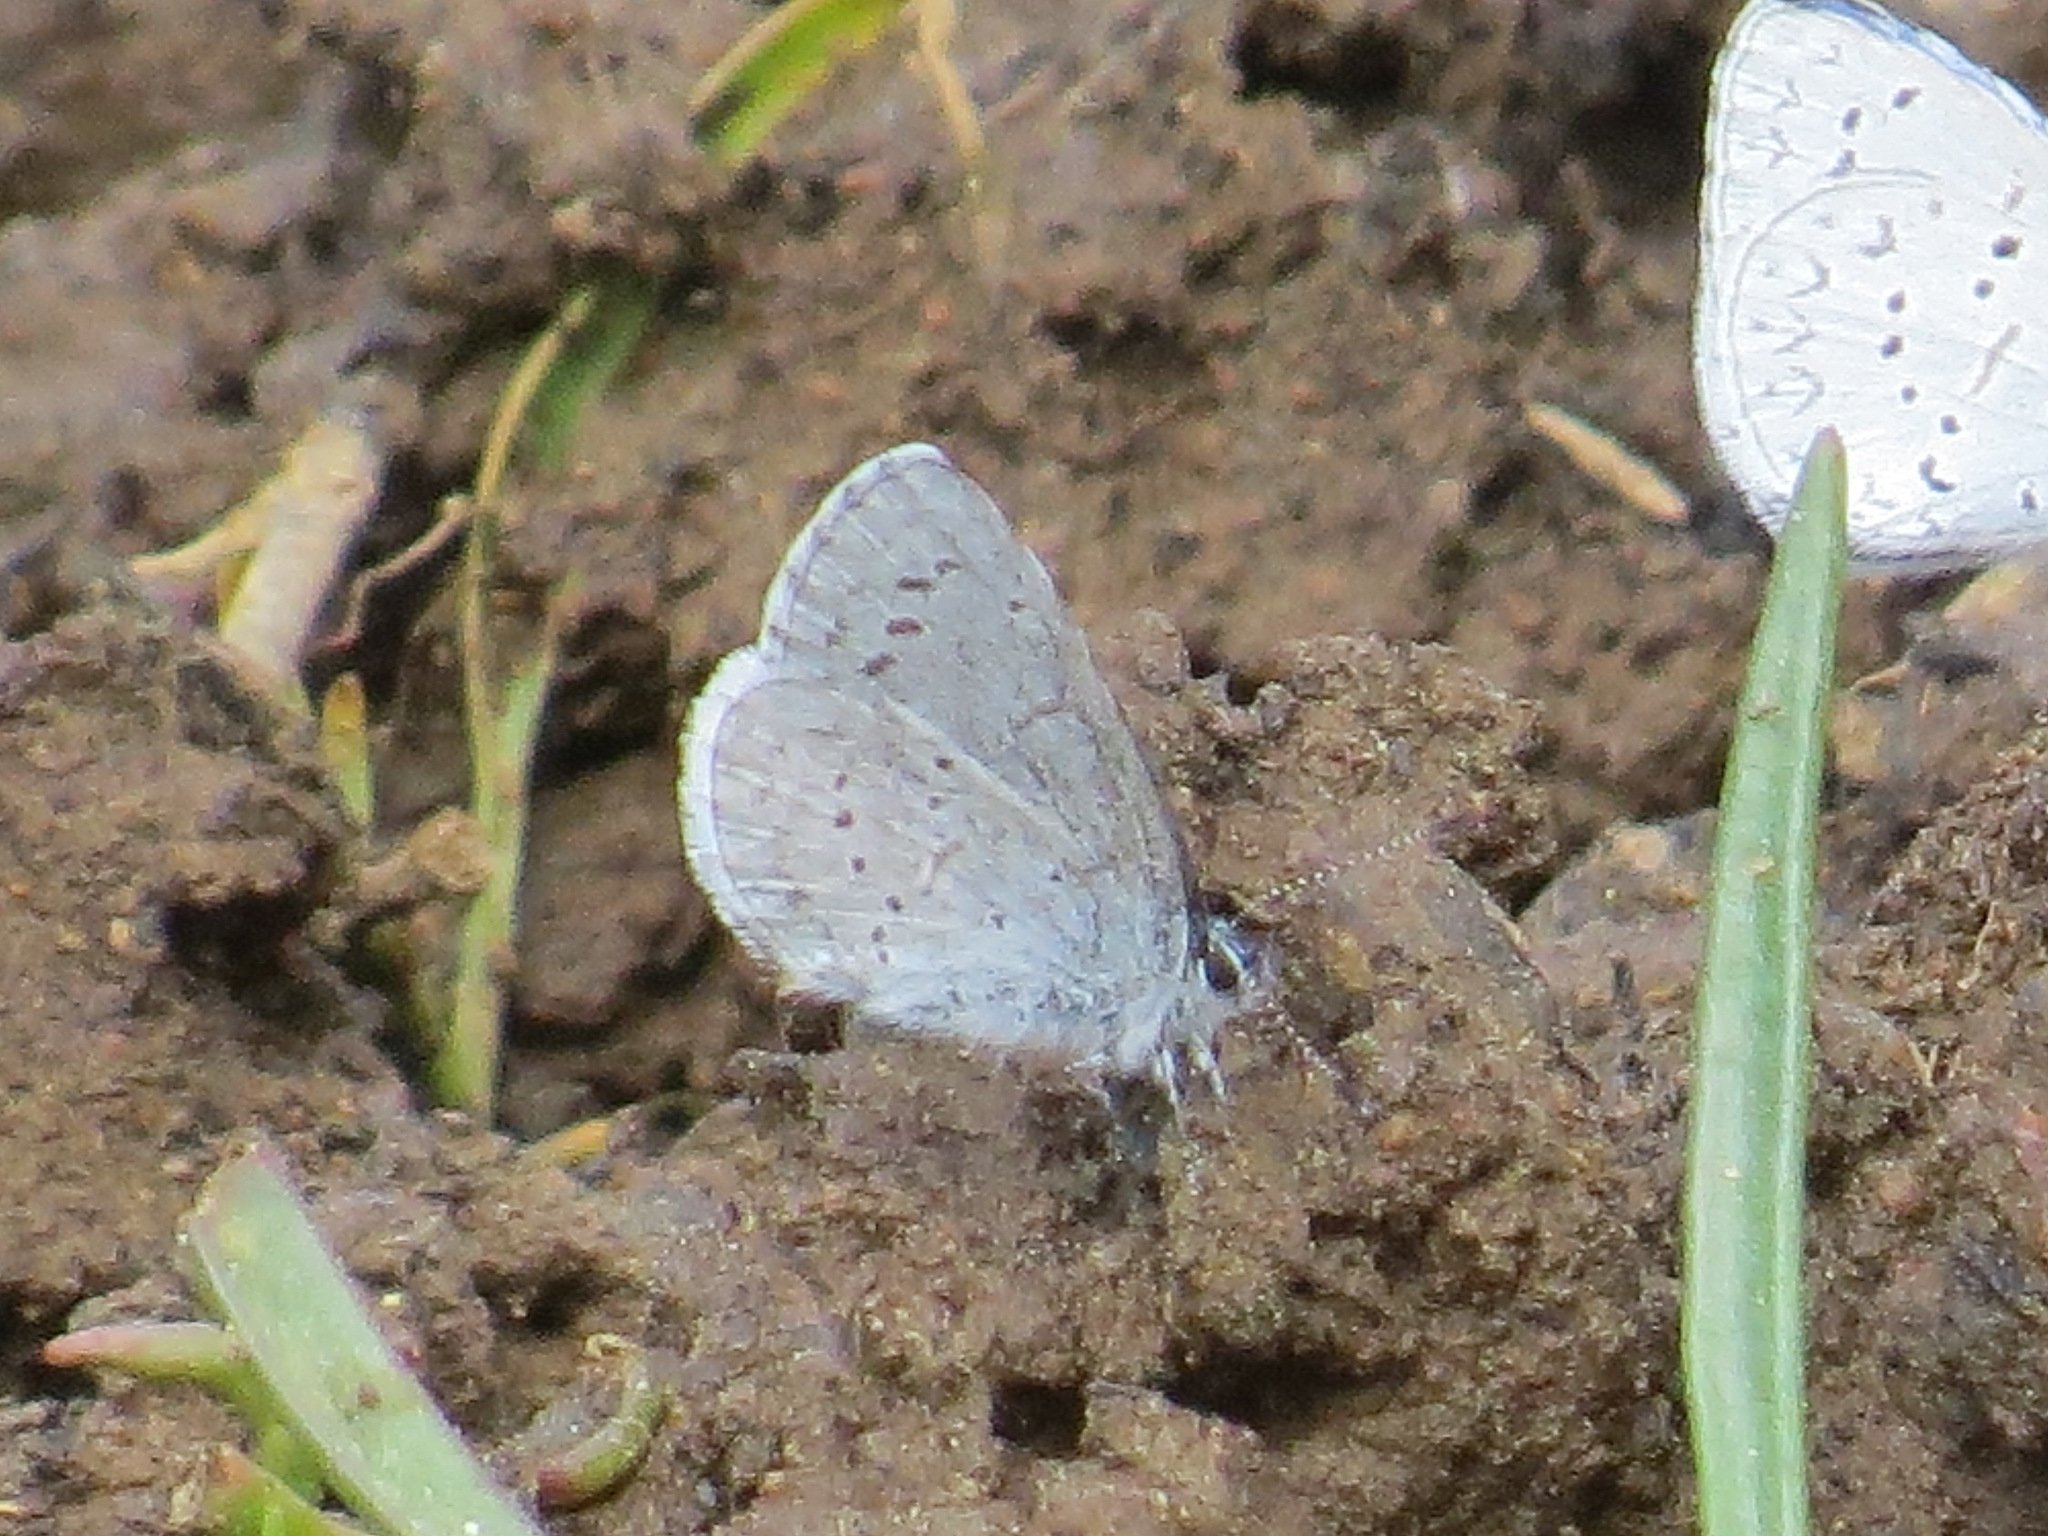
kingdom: Animalia
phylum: Arthropoda
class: Insecta
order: Lepidoptera
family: Lycaenidae
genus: Celastrina
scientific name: Celastrina ladon
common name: Spring azure
